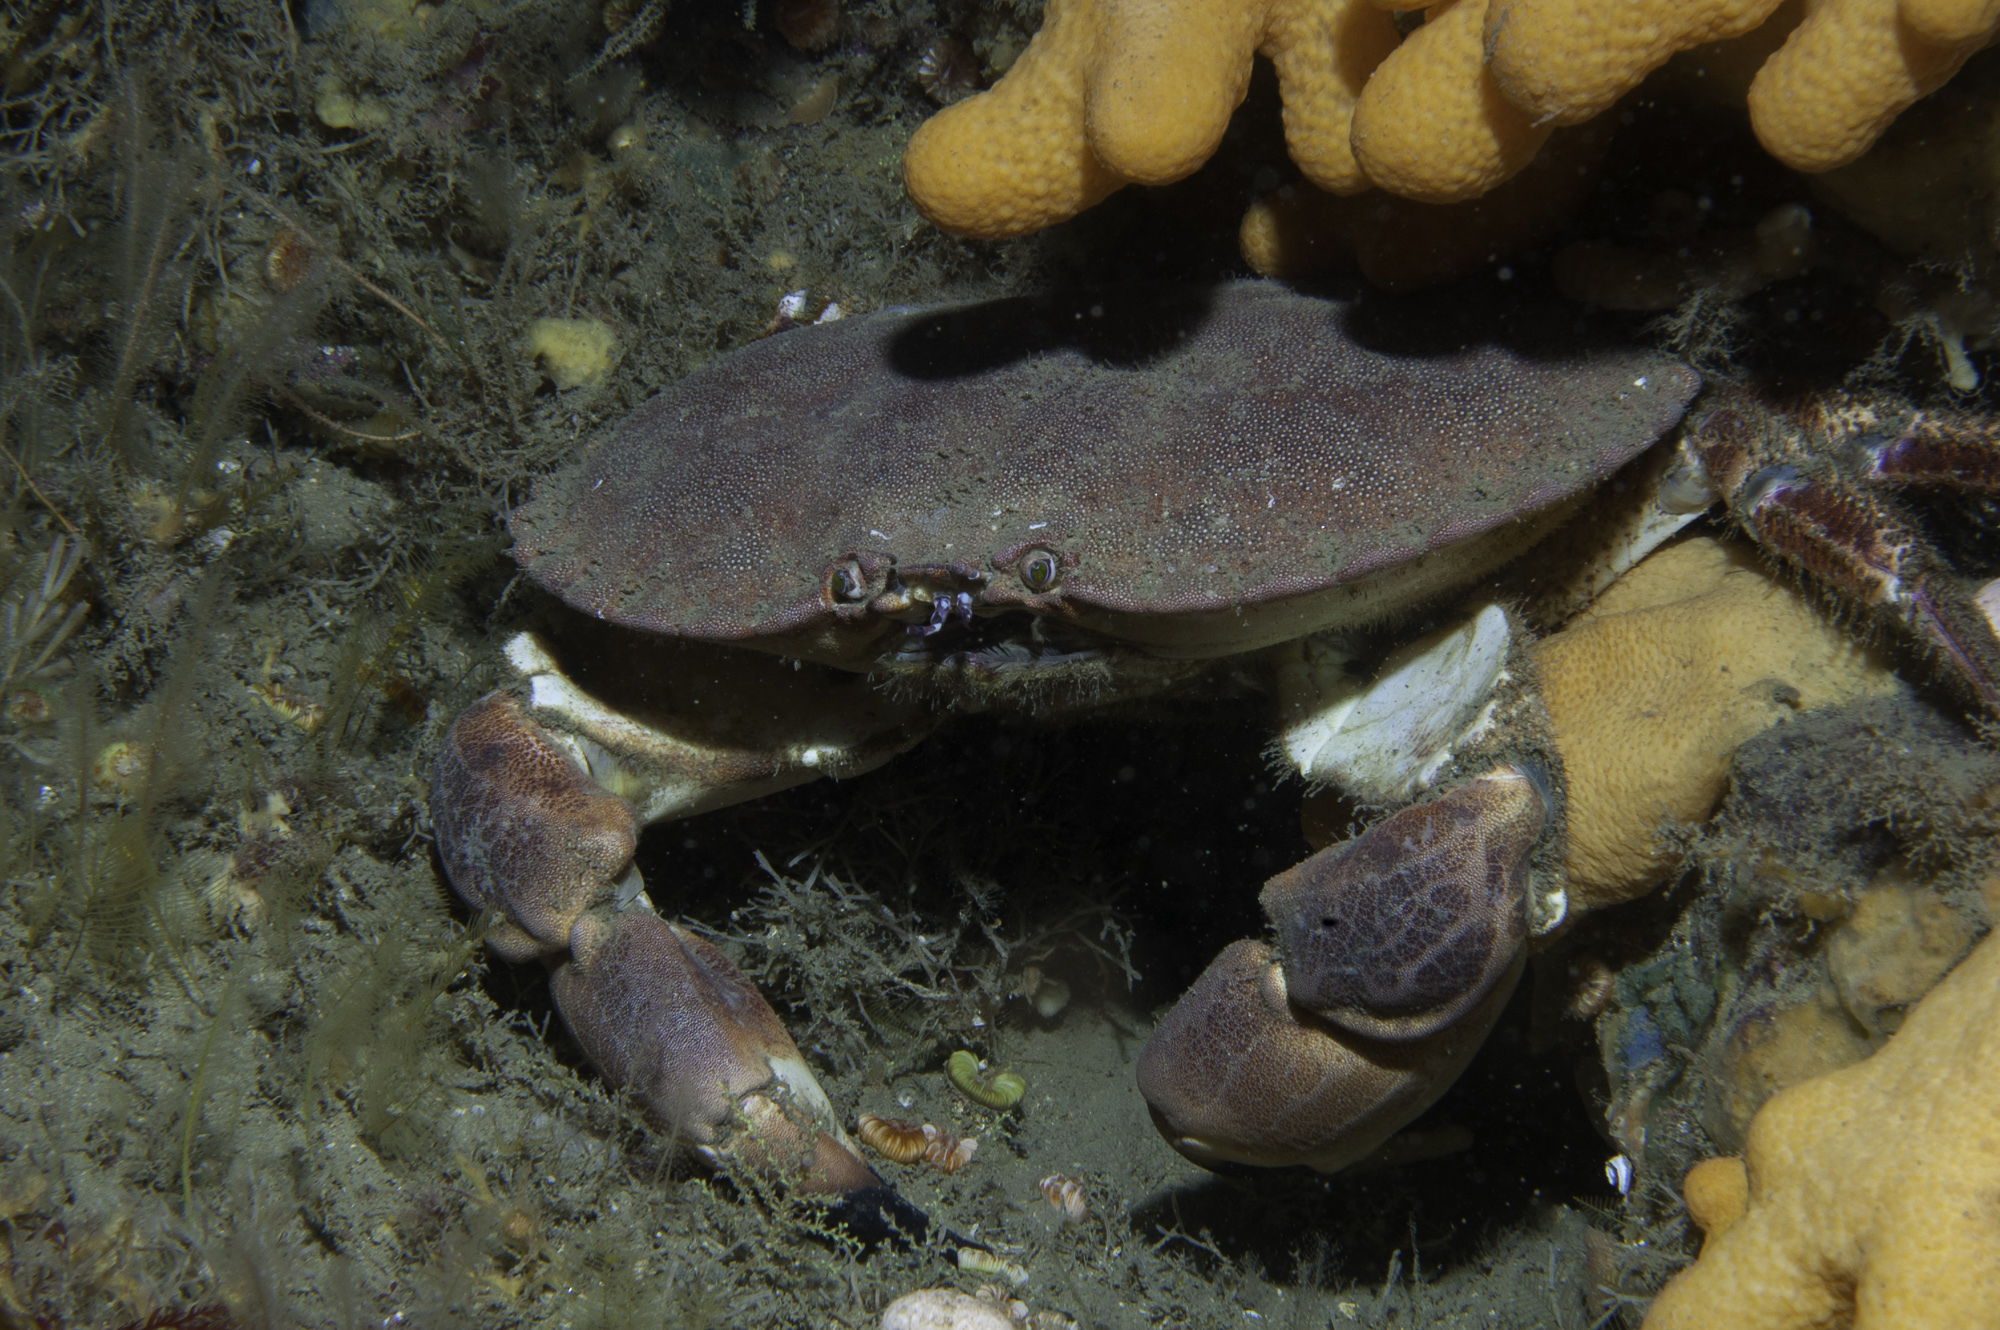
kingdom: Animalia
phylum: Arthropoda
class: Malacostraca
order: Decapoda
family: Cancridae
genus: Cancer
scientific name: Cancer pagurus
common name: Edible crab
